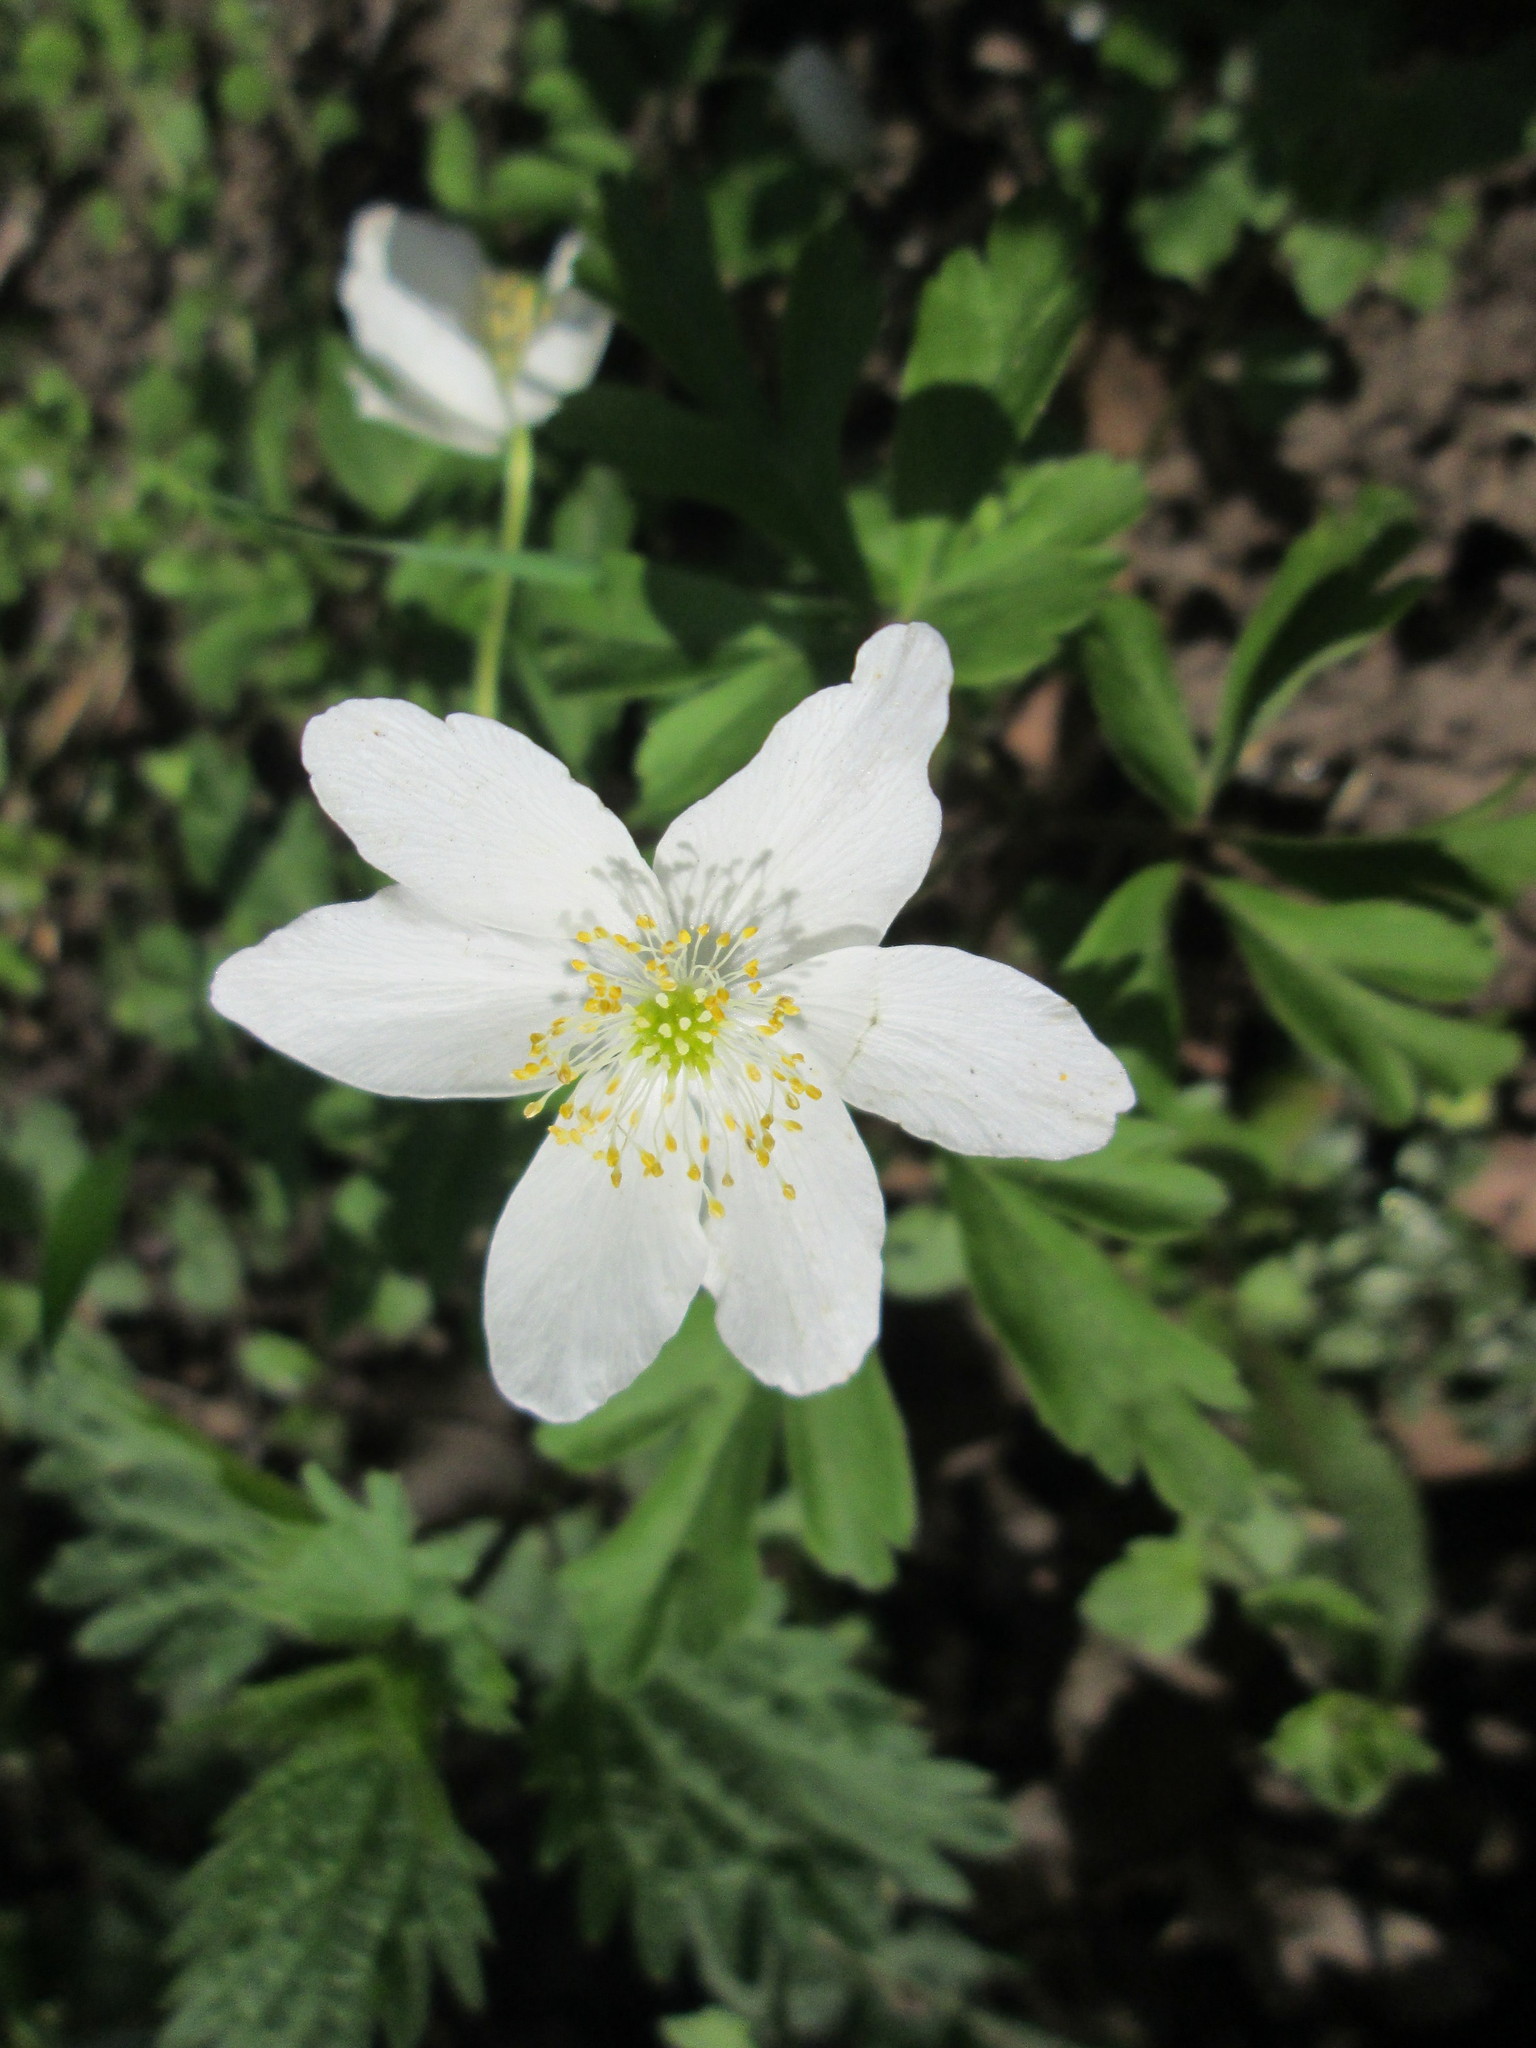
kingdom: Plantae
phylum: Tracheophyta
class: Magnoliopsida
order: Ranunculales
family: Ranunculaceae
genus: Anemone
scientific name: Anemone nemorosa
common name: Wood anemone
